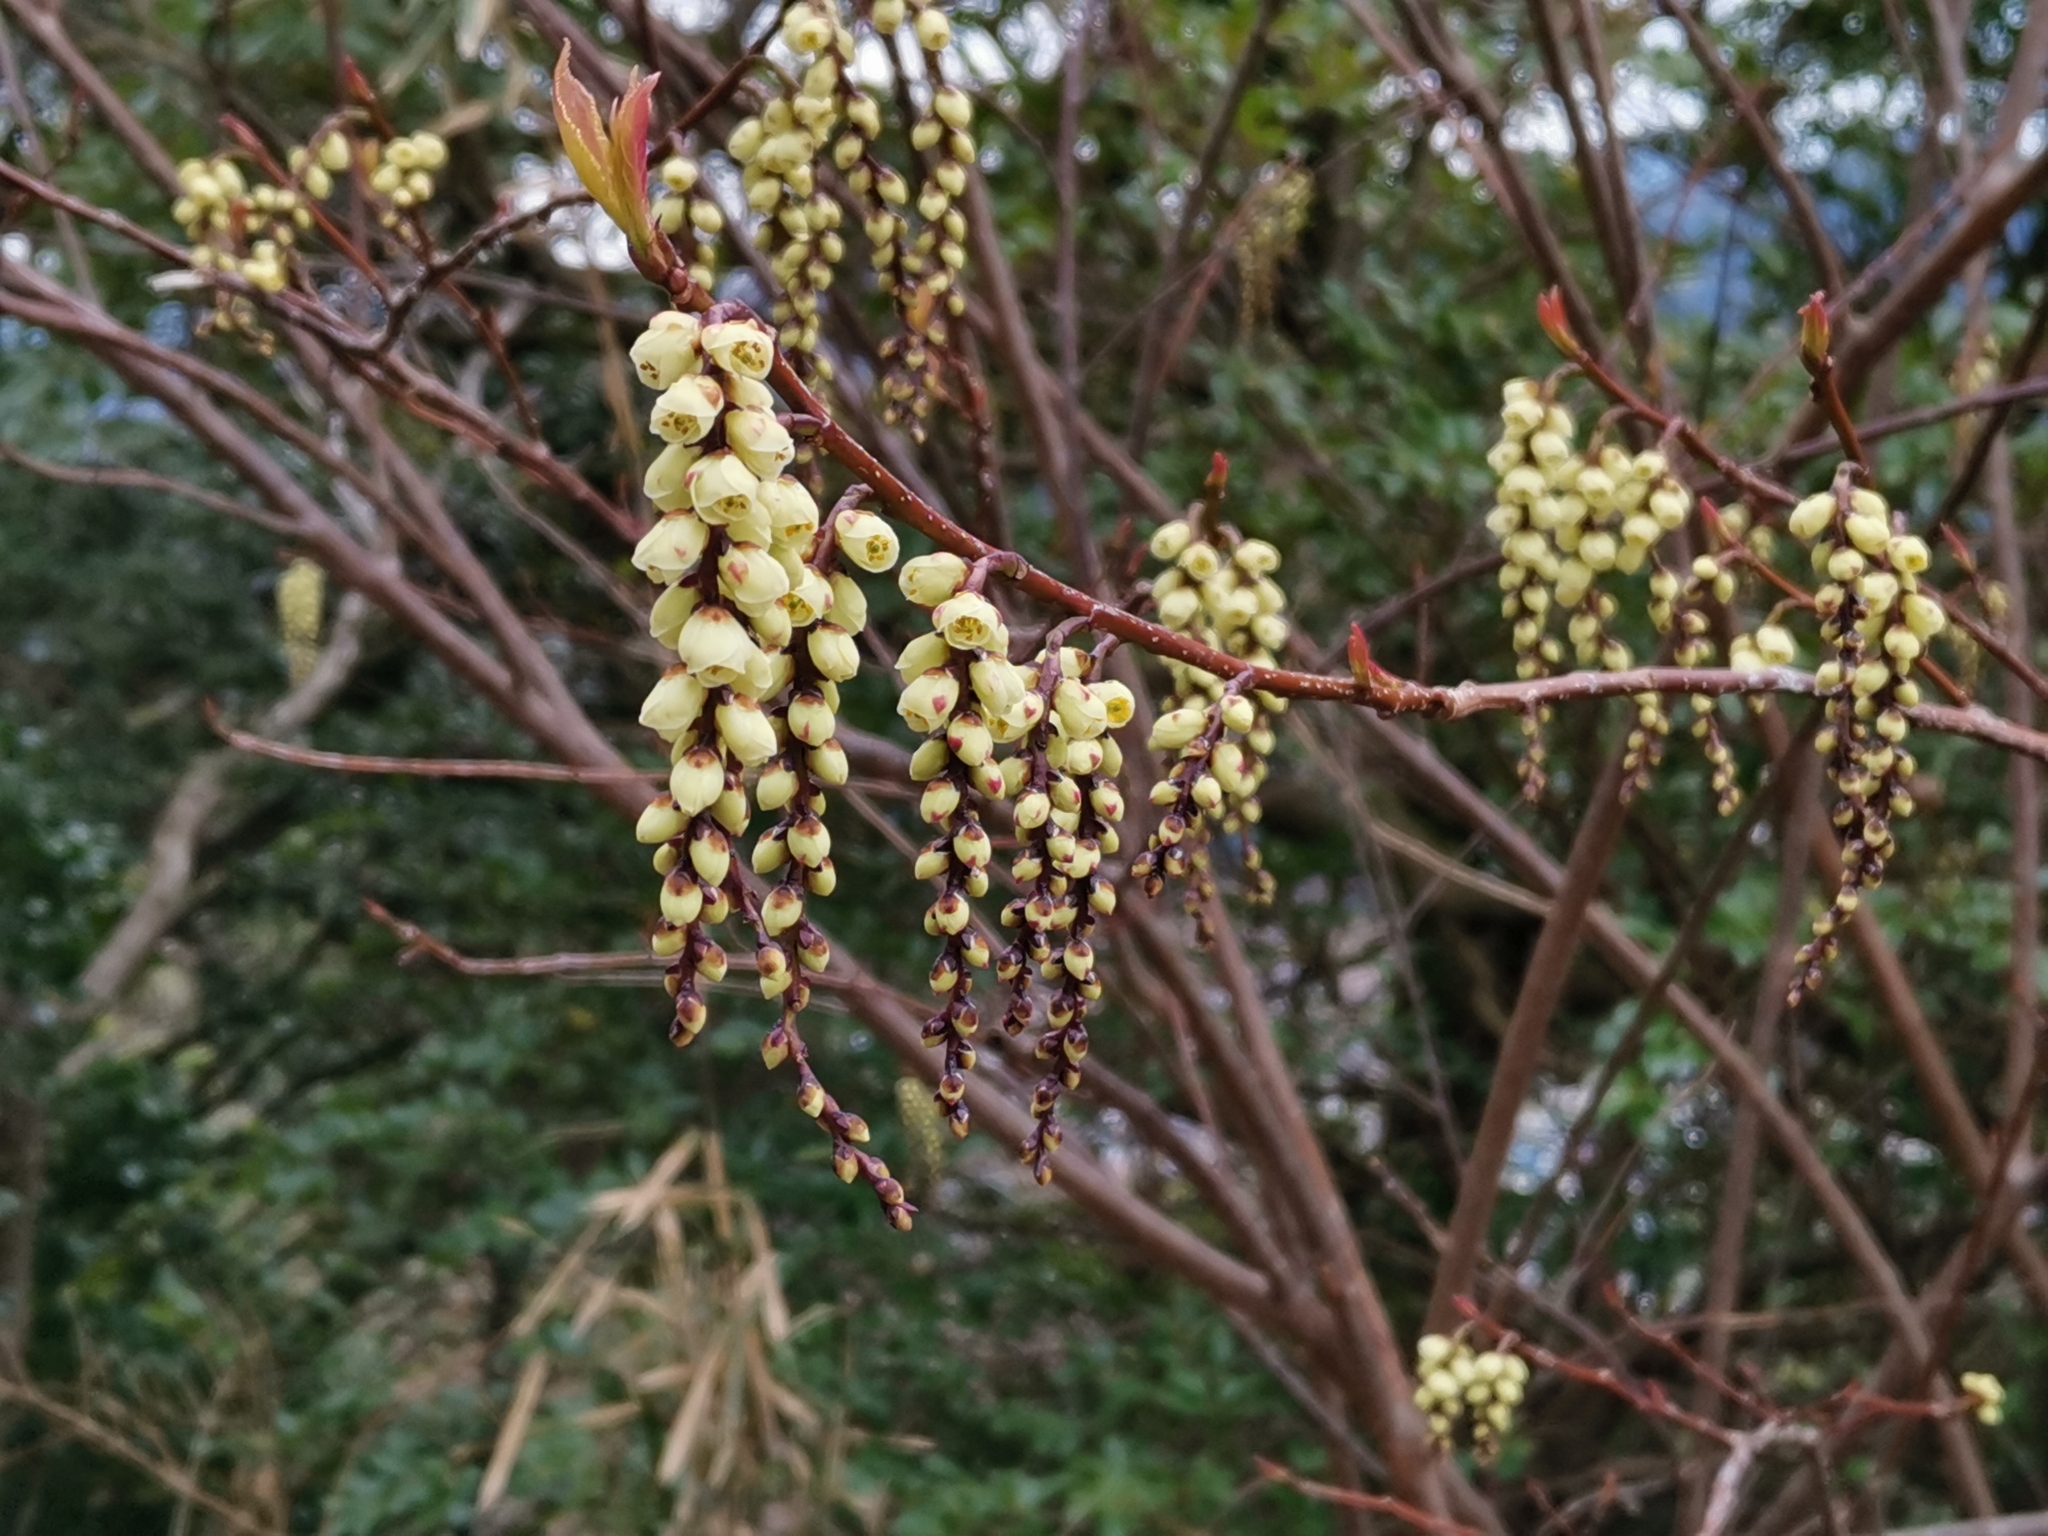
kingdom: Plantae
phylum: Tracheophyta
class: Magnoliopsida
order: Crossosomatales
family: Stachyuraceae
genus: Stachyurus
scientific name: Stachyurus praecox
